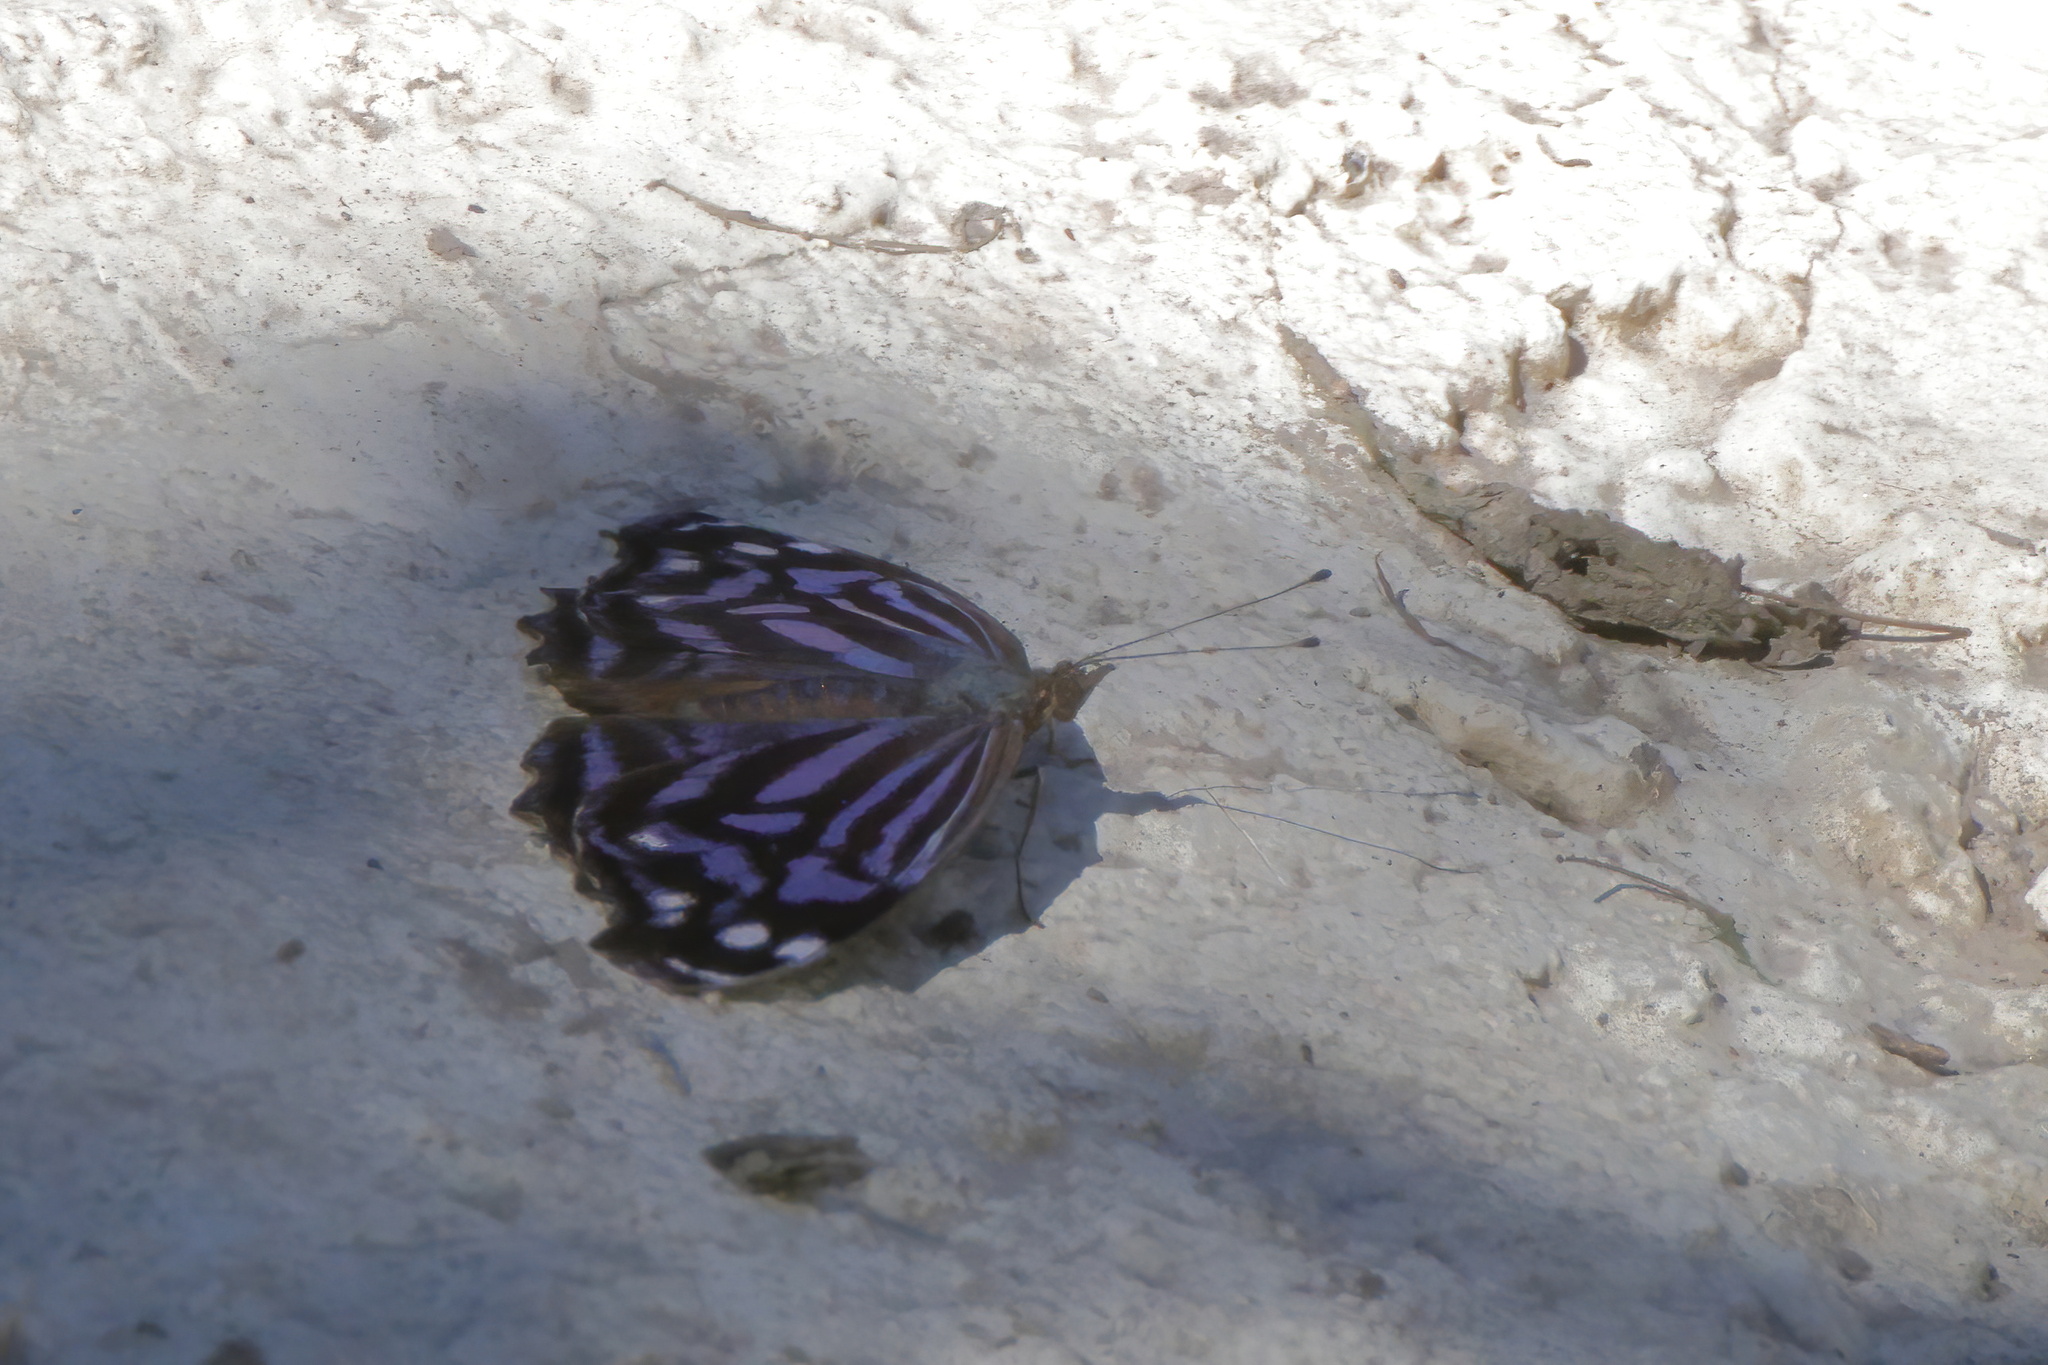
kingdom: Animalia
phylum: Arthropoda
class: Insecta
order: Lepidoptera
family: Nymphalidae
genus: Myscelia
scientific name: Myscelia ethusa
